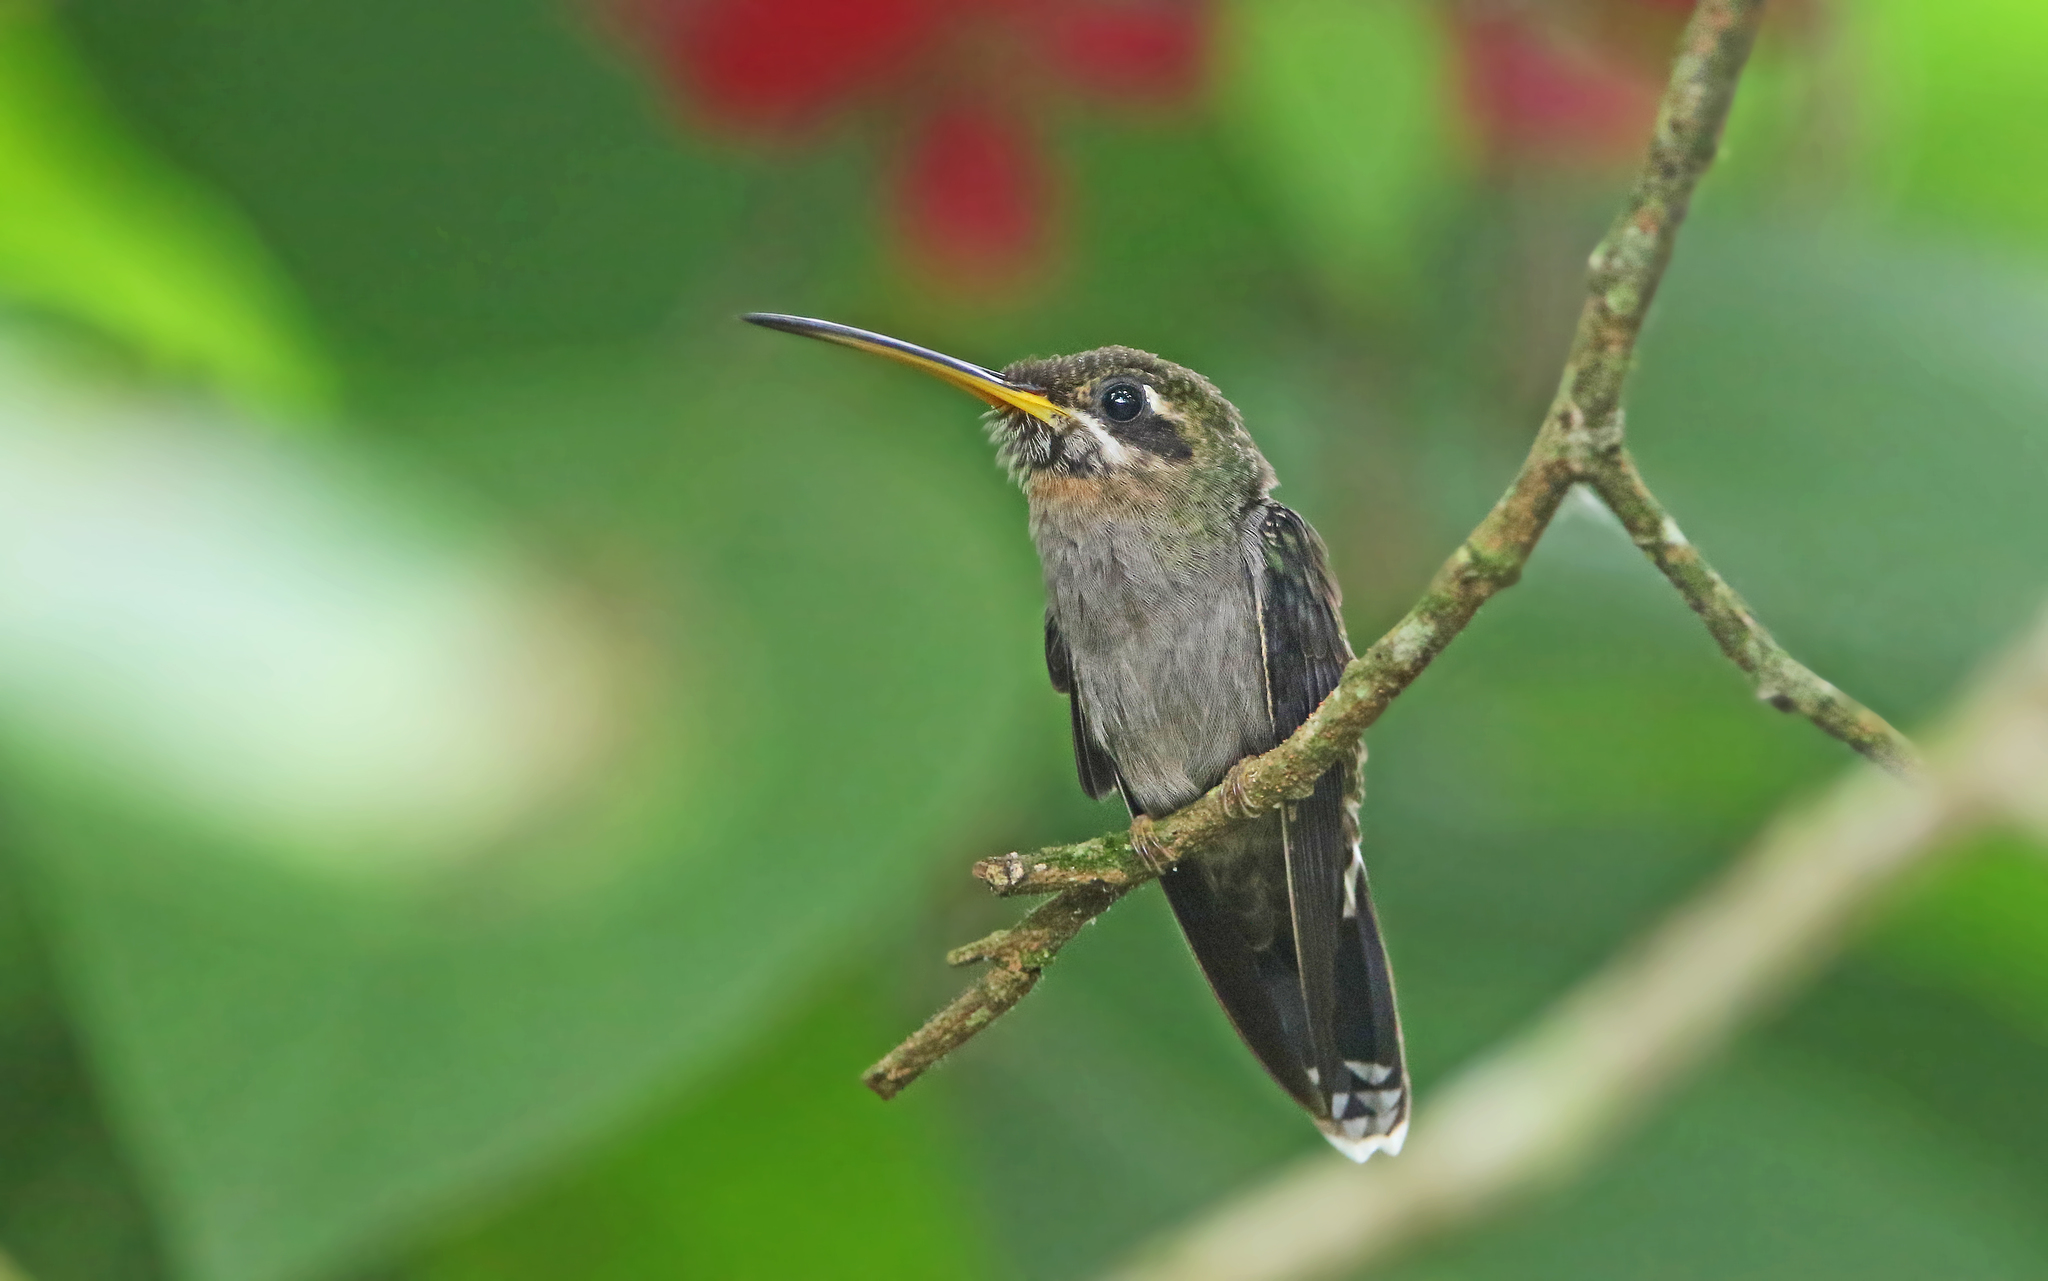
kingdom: Animalia
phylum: Chordata
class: Aves
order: Apodiformes
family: Trochilidae
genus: Threnetes
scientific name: Threnetes ruckeri
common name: Band-tailed barbthroat
